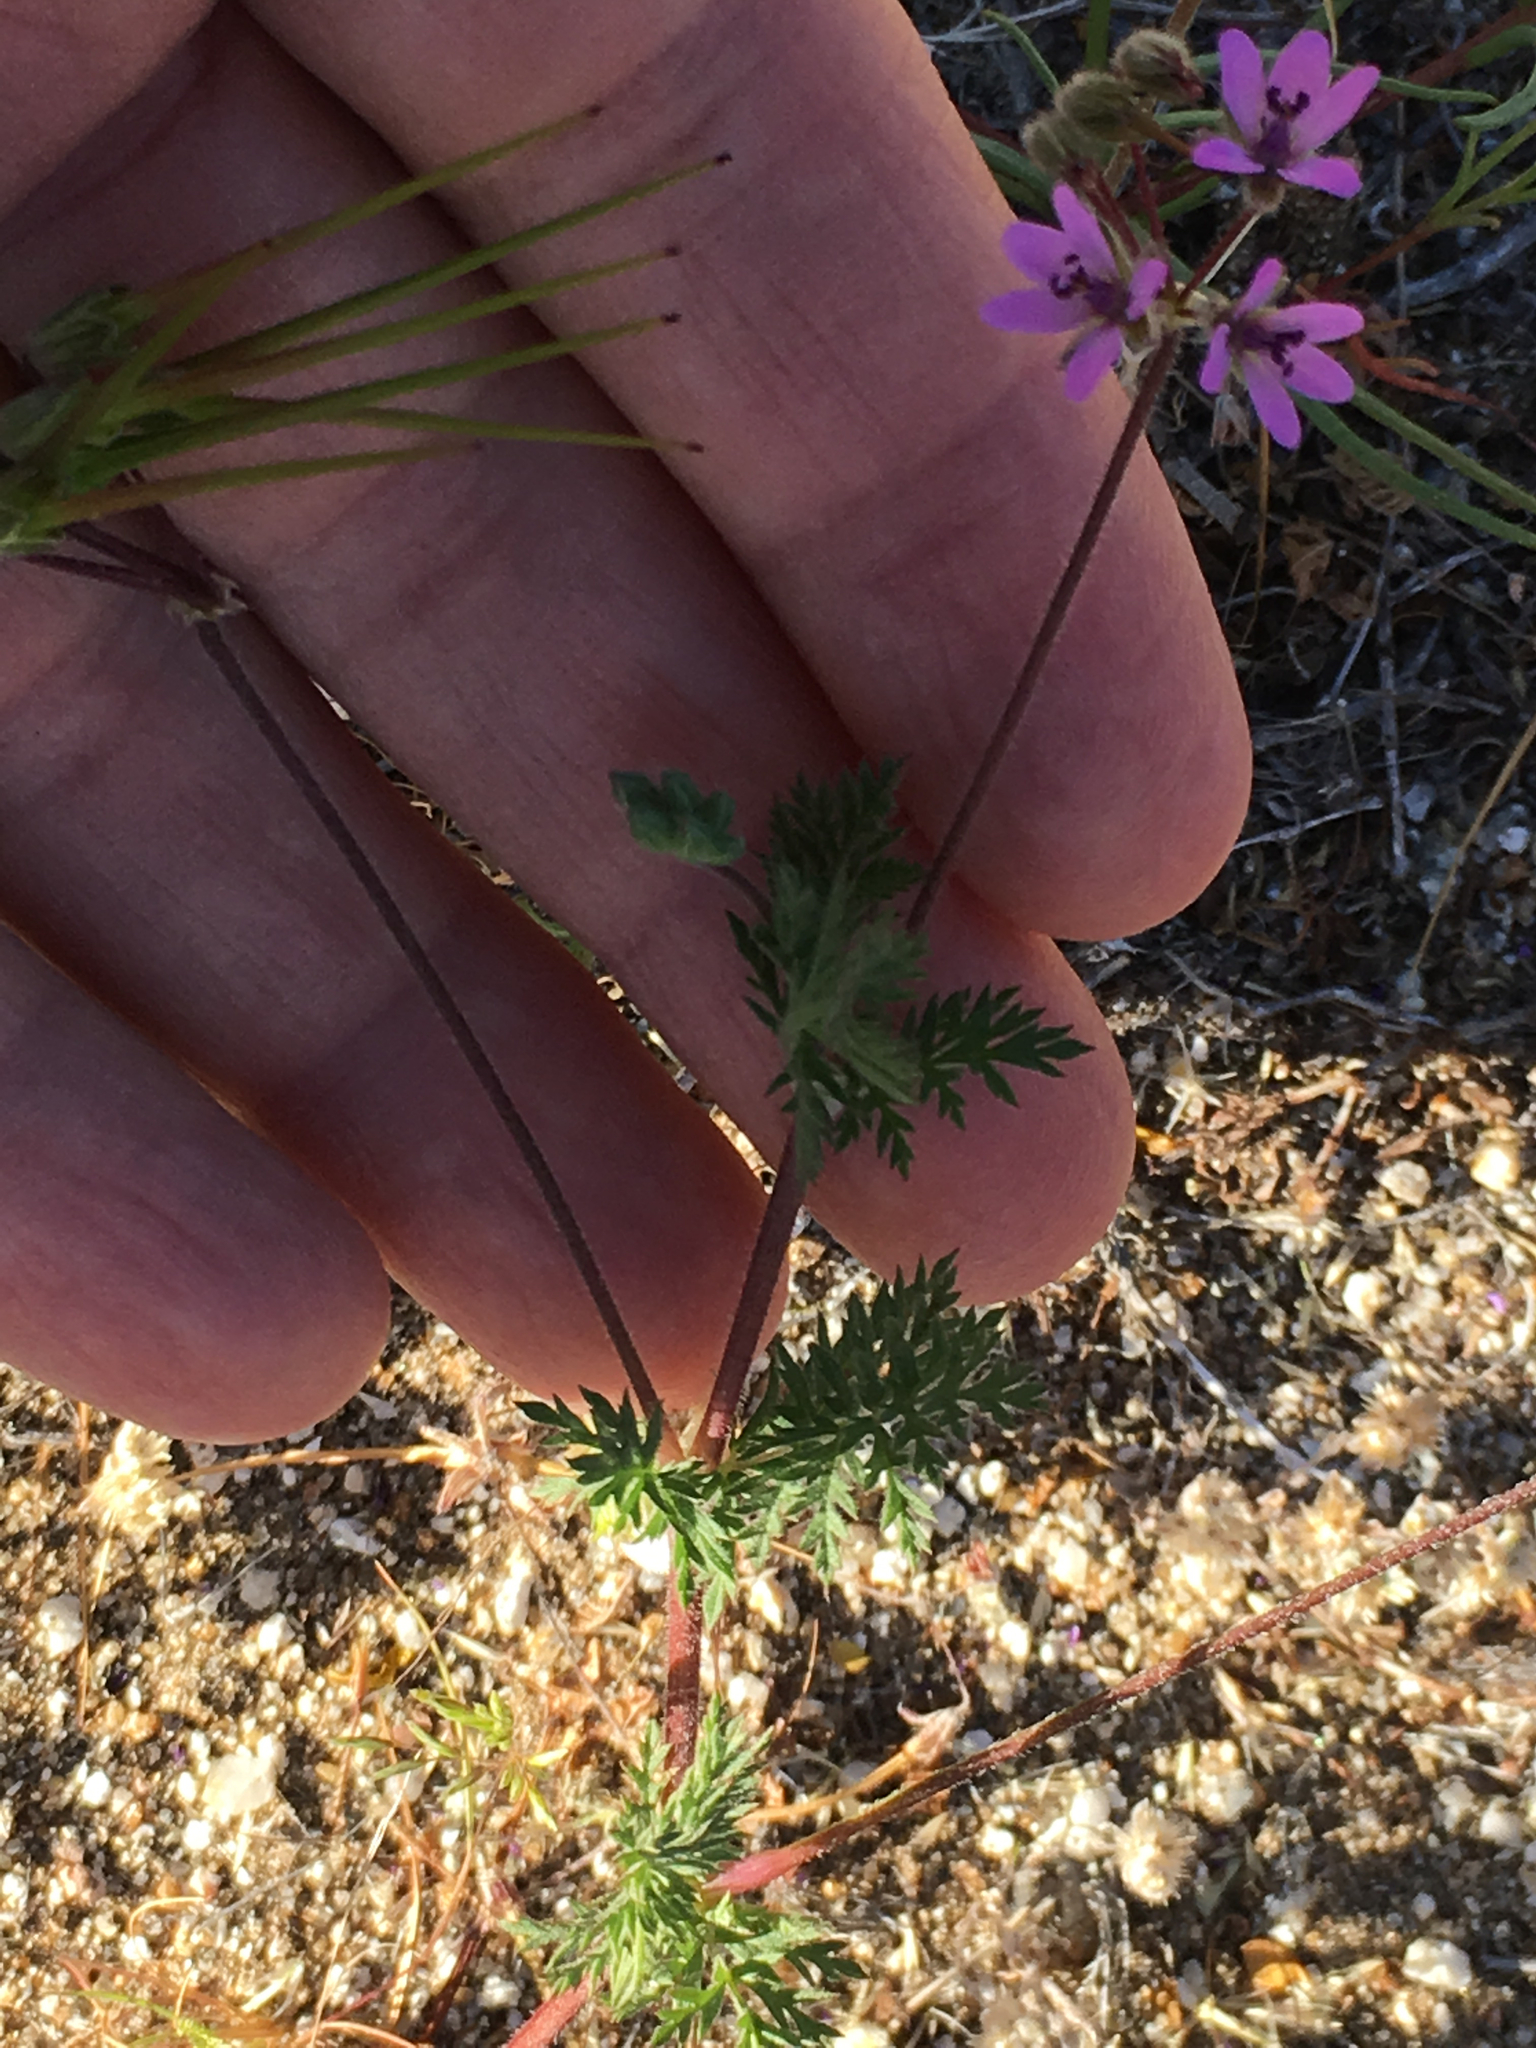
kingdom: Plantae
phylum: Tracheophyta
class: Magnoliopsida
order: Geraniales
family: Geraniaceae
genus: Erodium
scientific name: Erodium cicutarium
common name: Common stork's-bill
